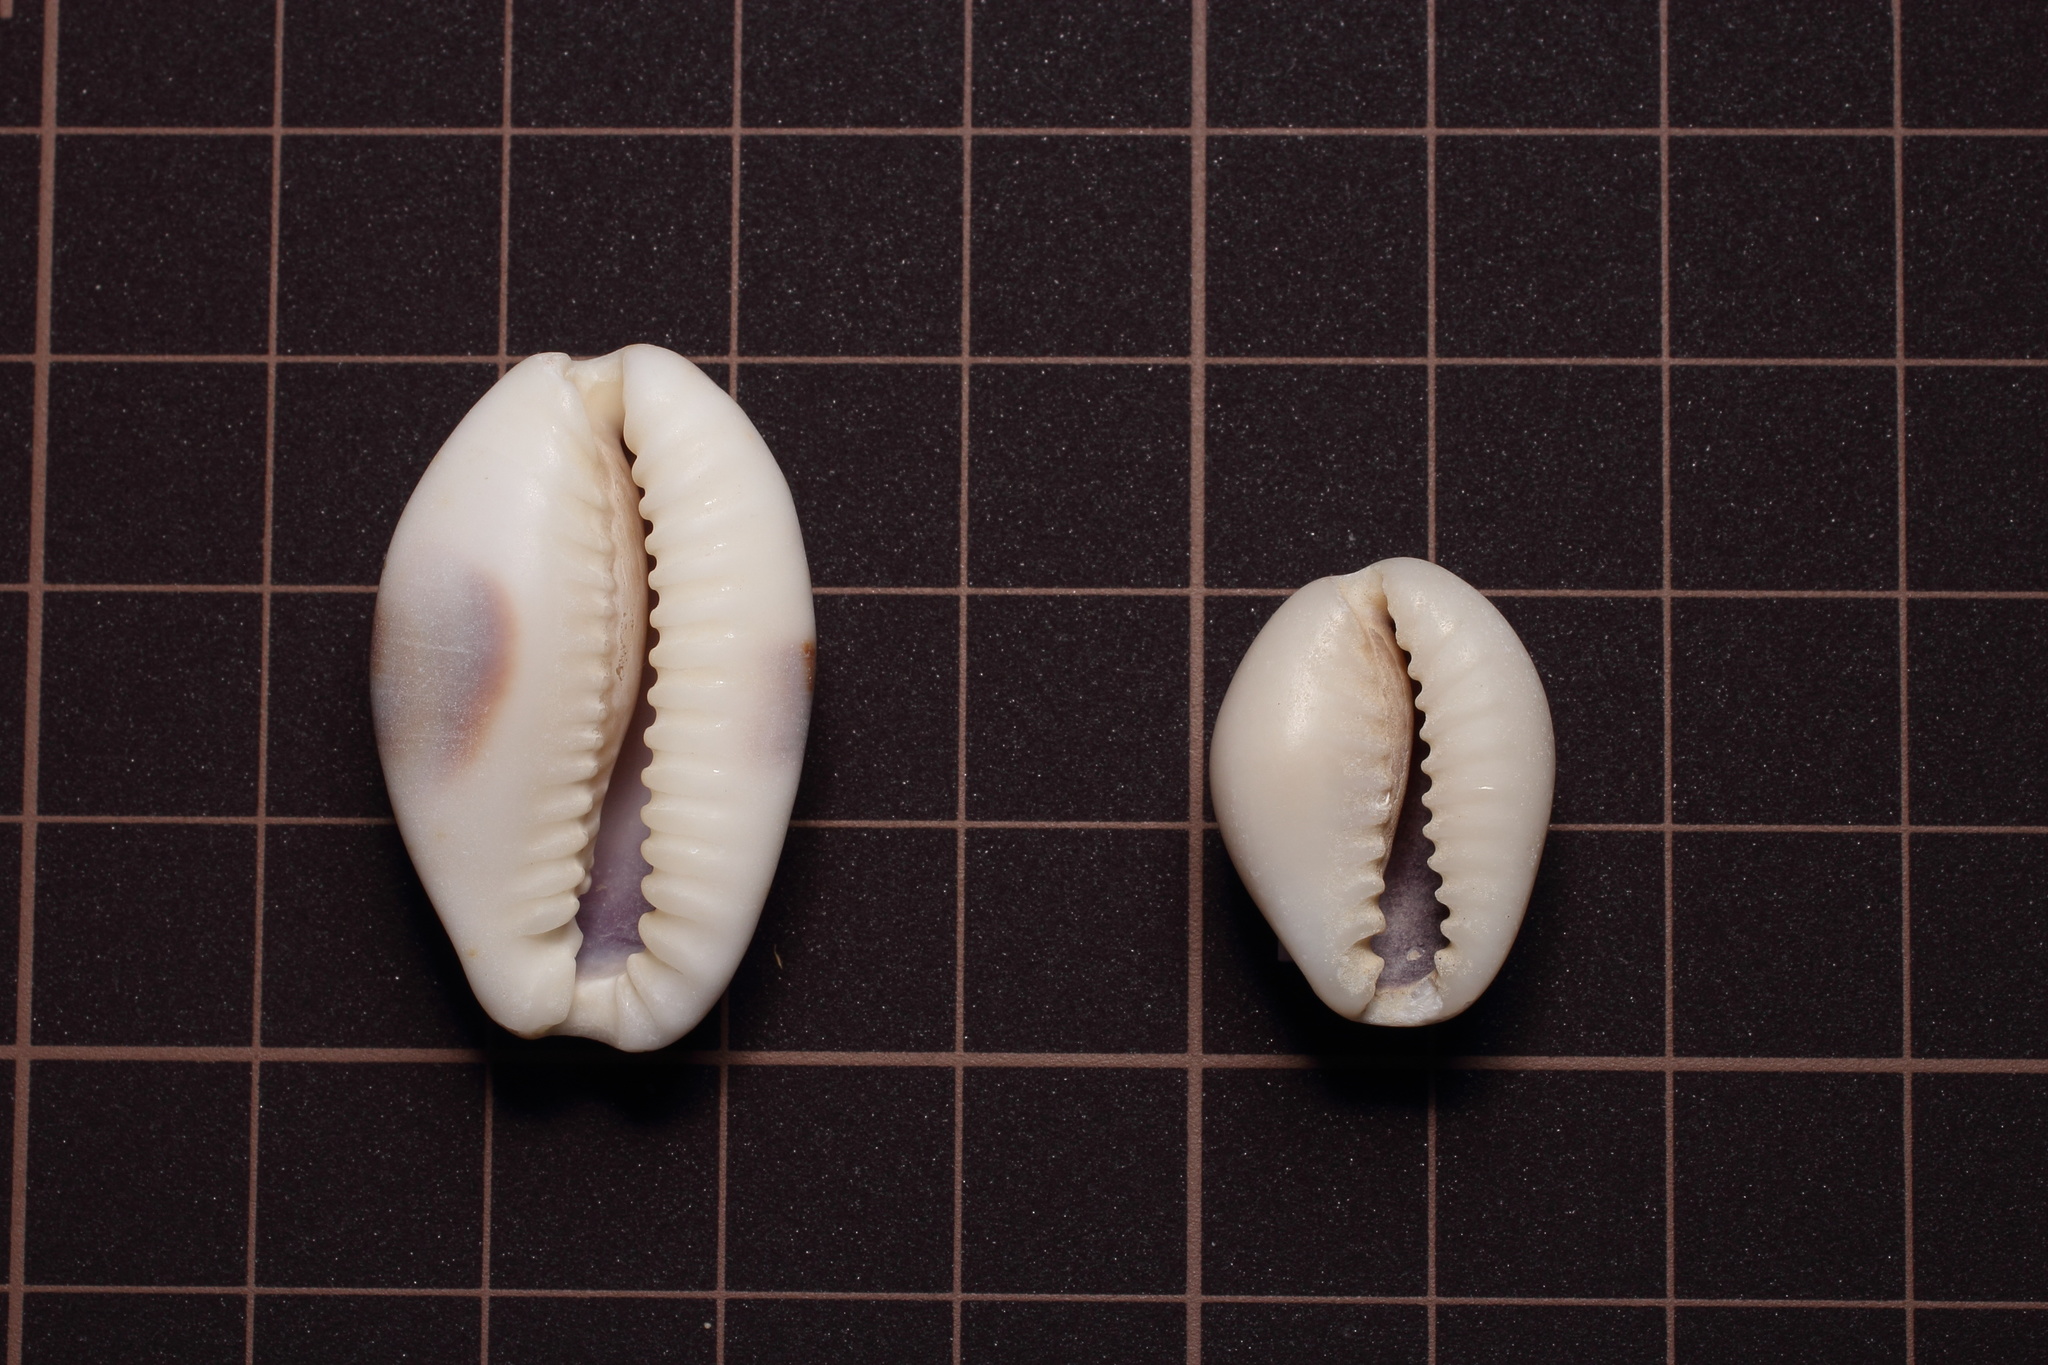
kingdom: Animalia
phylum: Mollusca
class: Gastropoda
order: Littorinimorpha
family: Cypraeidae
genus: Naria
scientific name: Naria erosa
